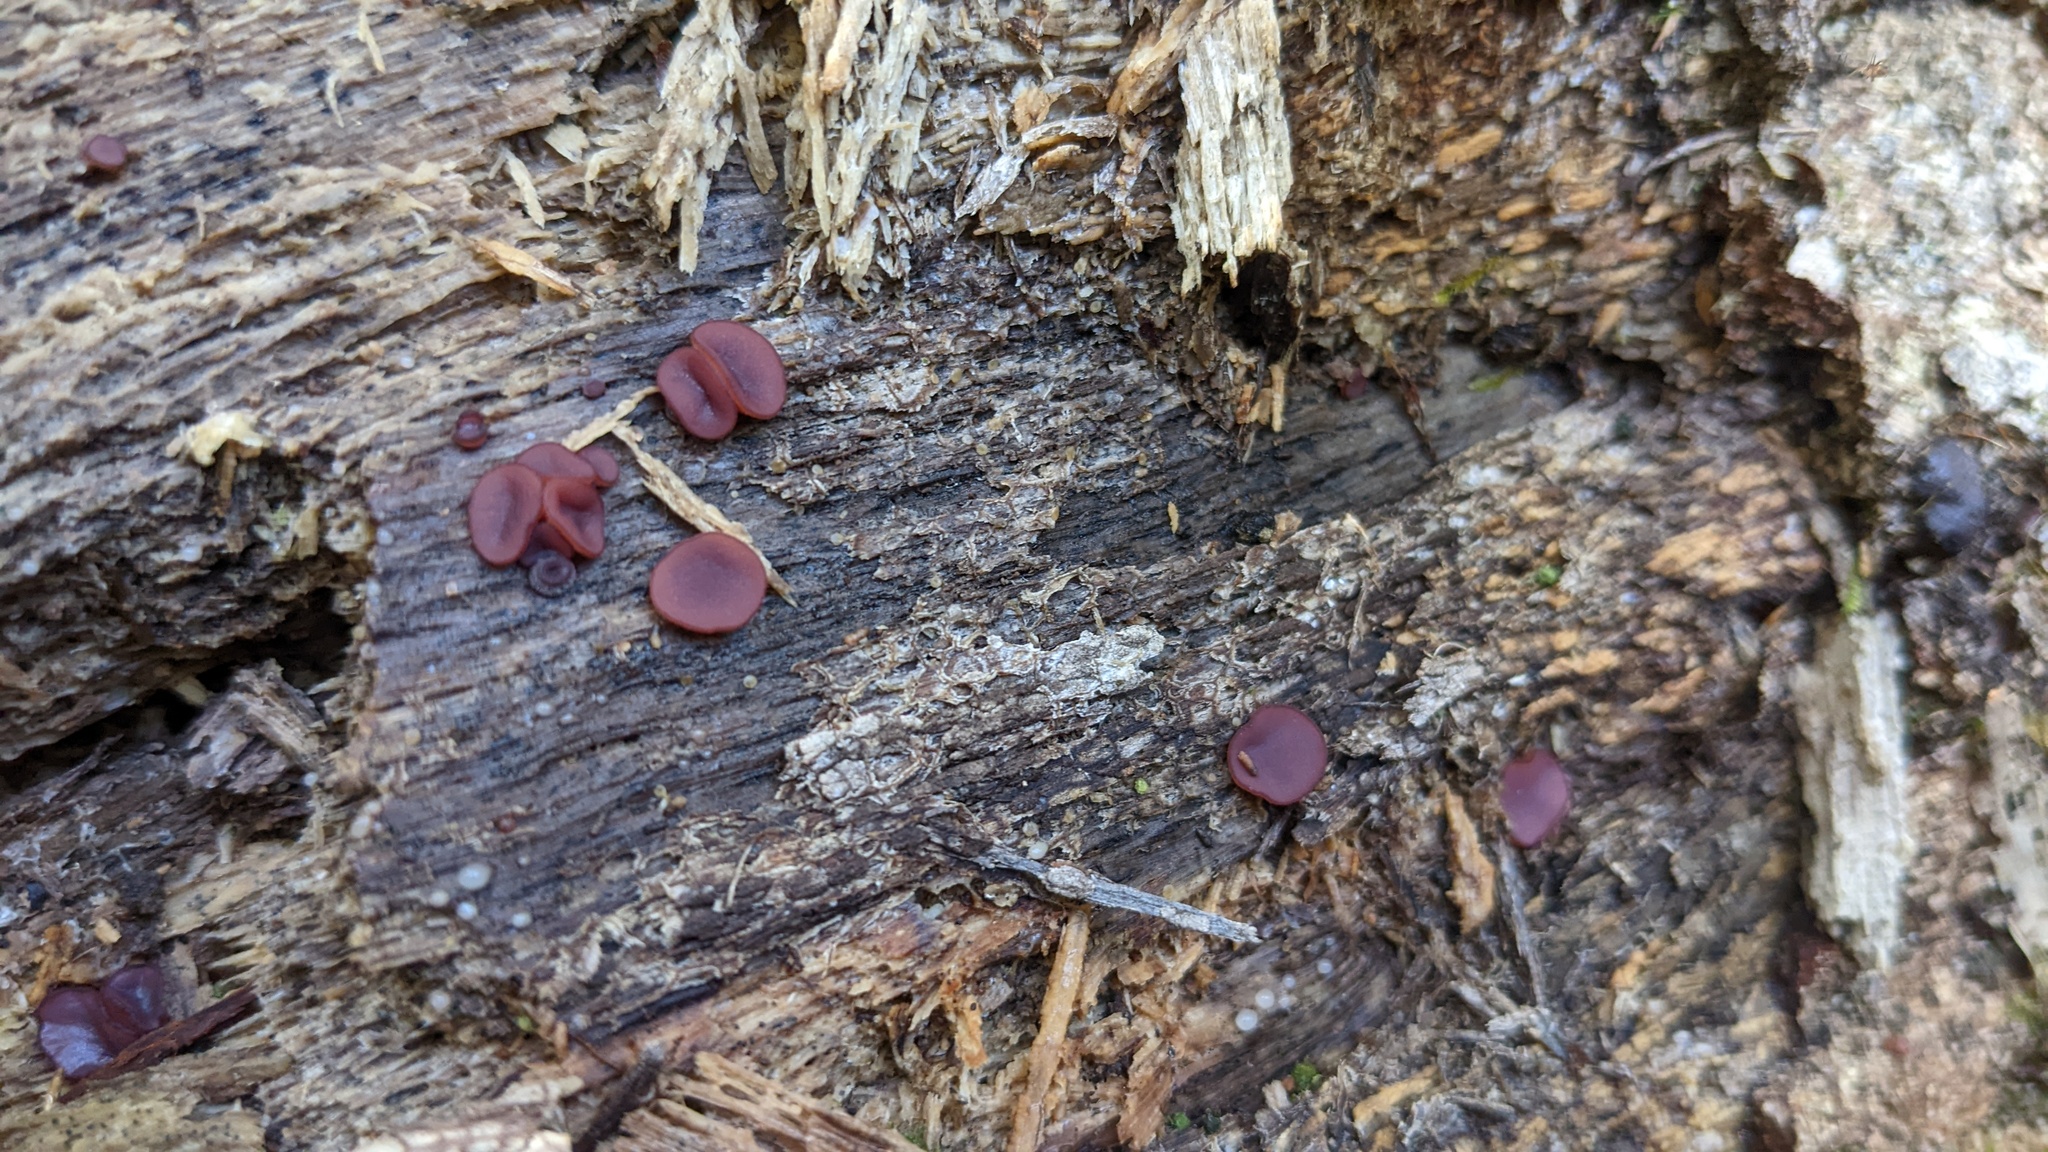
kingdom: Fungi
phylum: Ascomycota
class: Leotiomycetes
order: Helotiales
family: Gelatinodiscaceae
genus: Ascocoryne
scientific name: Ascocoryne cylichnium
